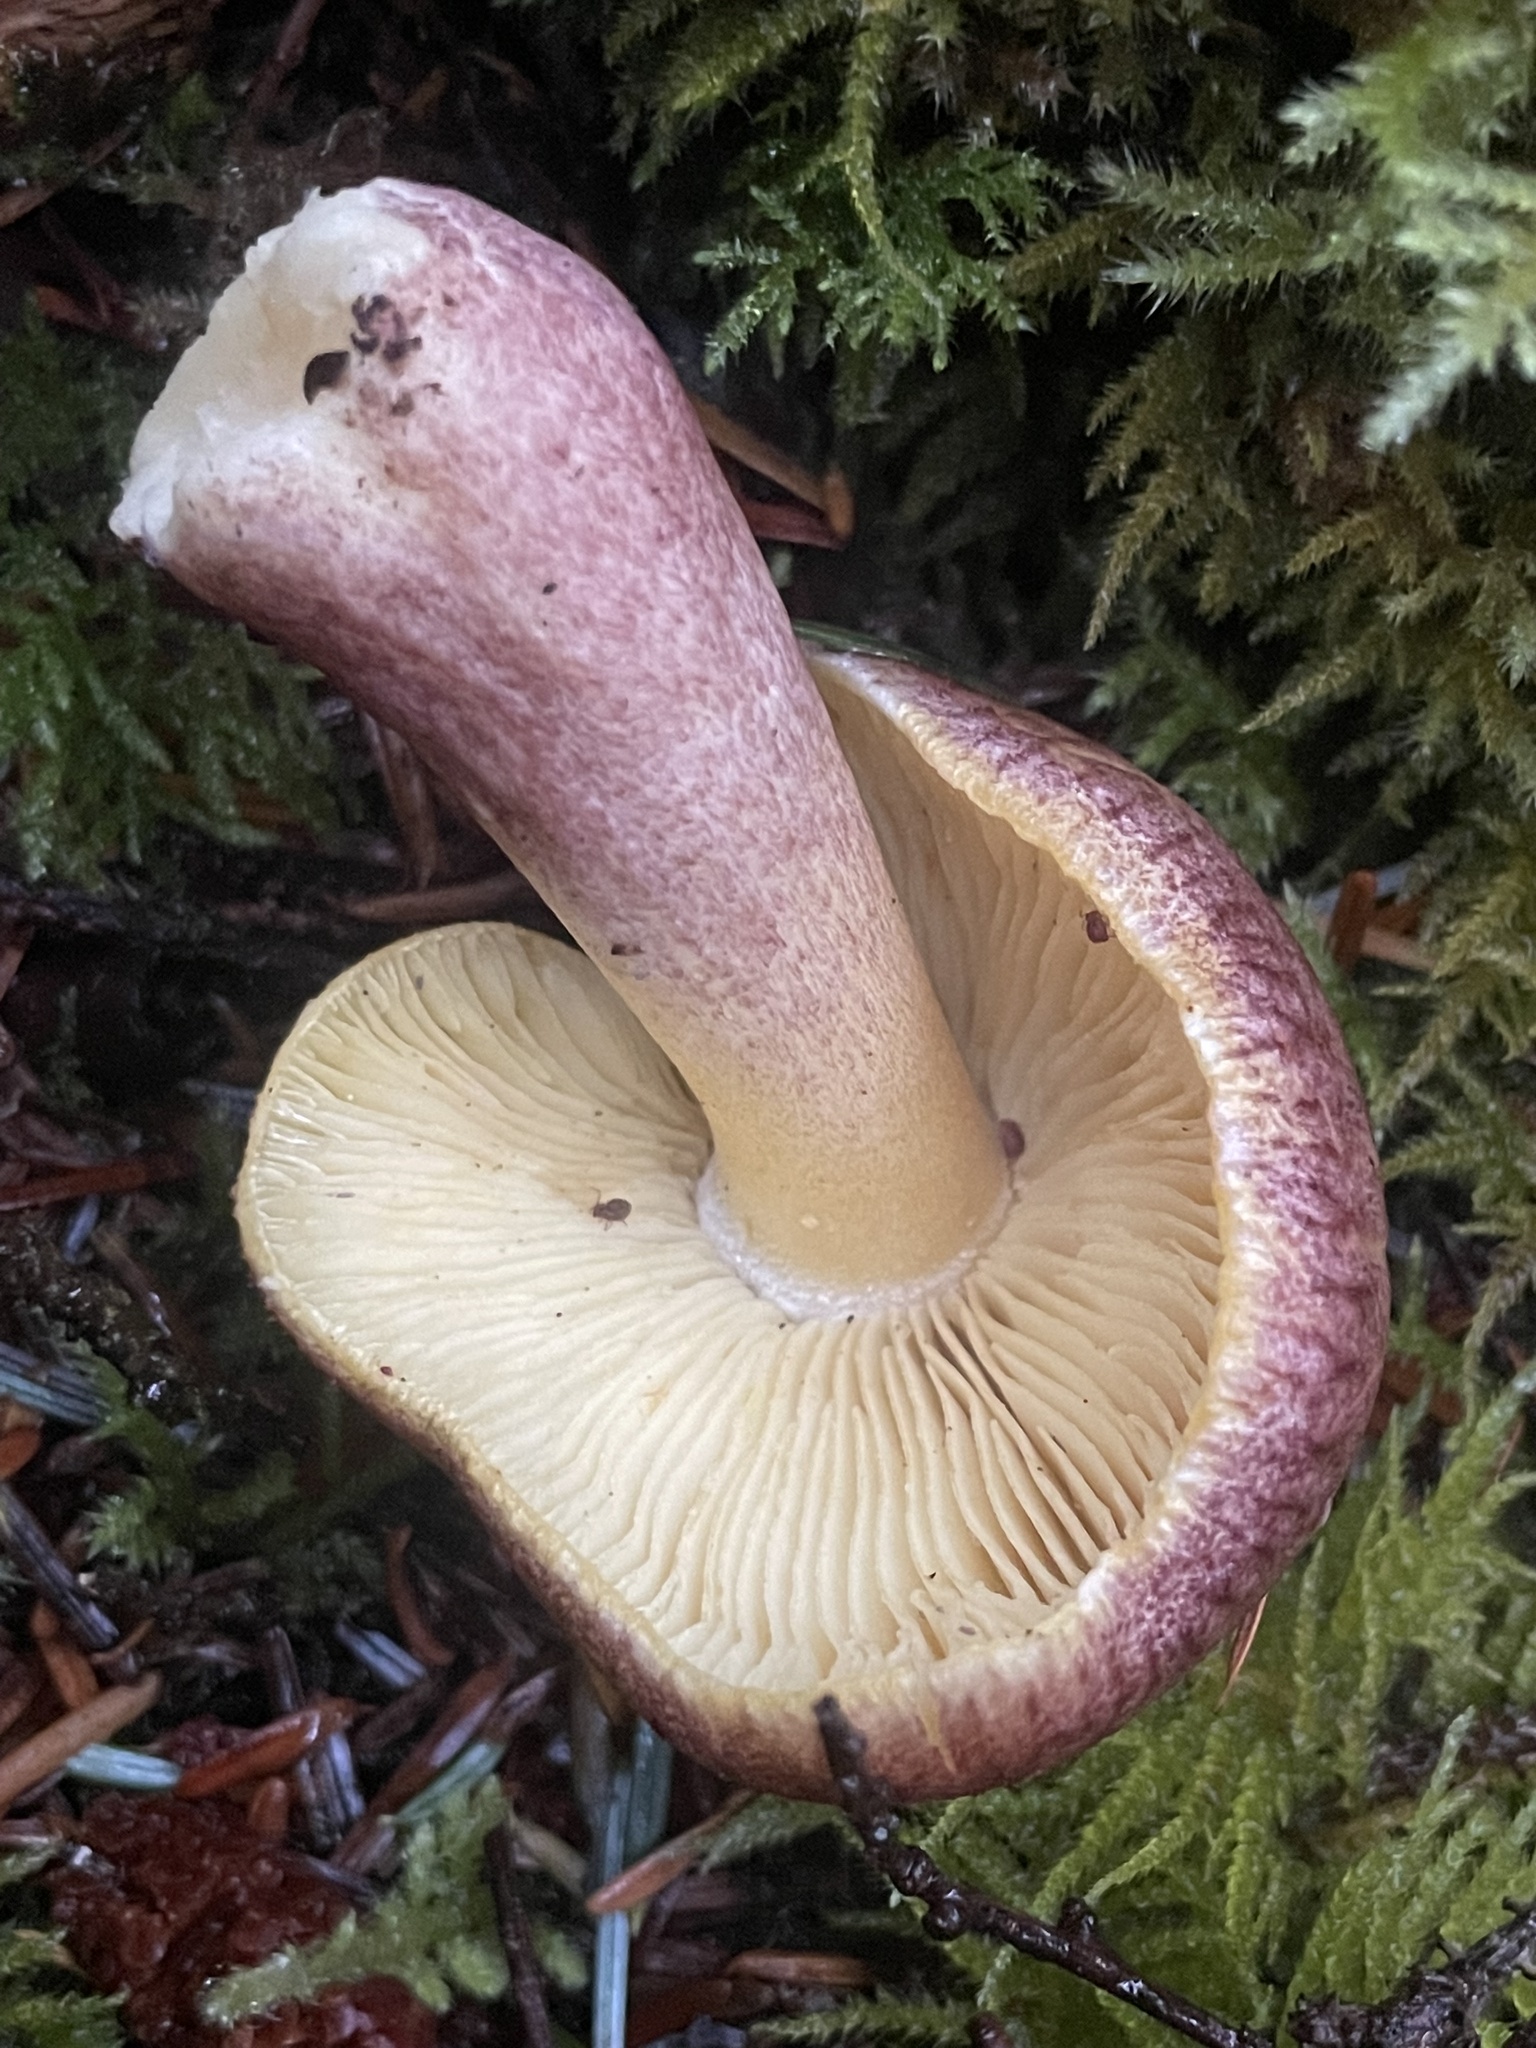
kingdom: Fungi
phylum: Basidiomycota
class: Agaricomycetes
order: Agaricales
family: Tricholomataceae
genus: Tricholomopsis
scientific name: Tricholomopsis rutilans
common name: Plums and custard
